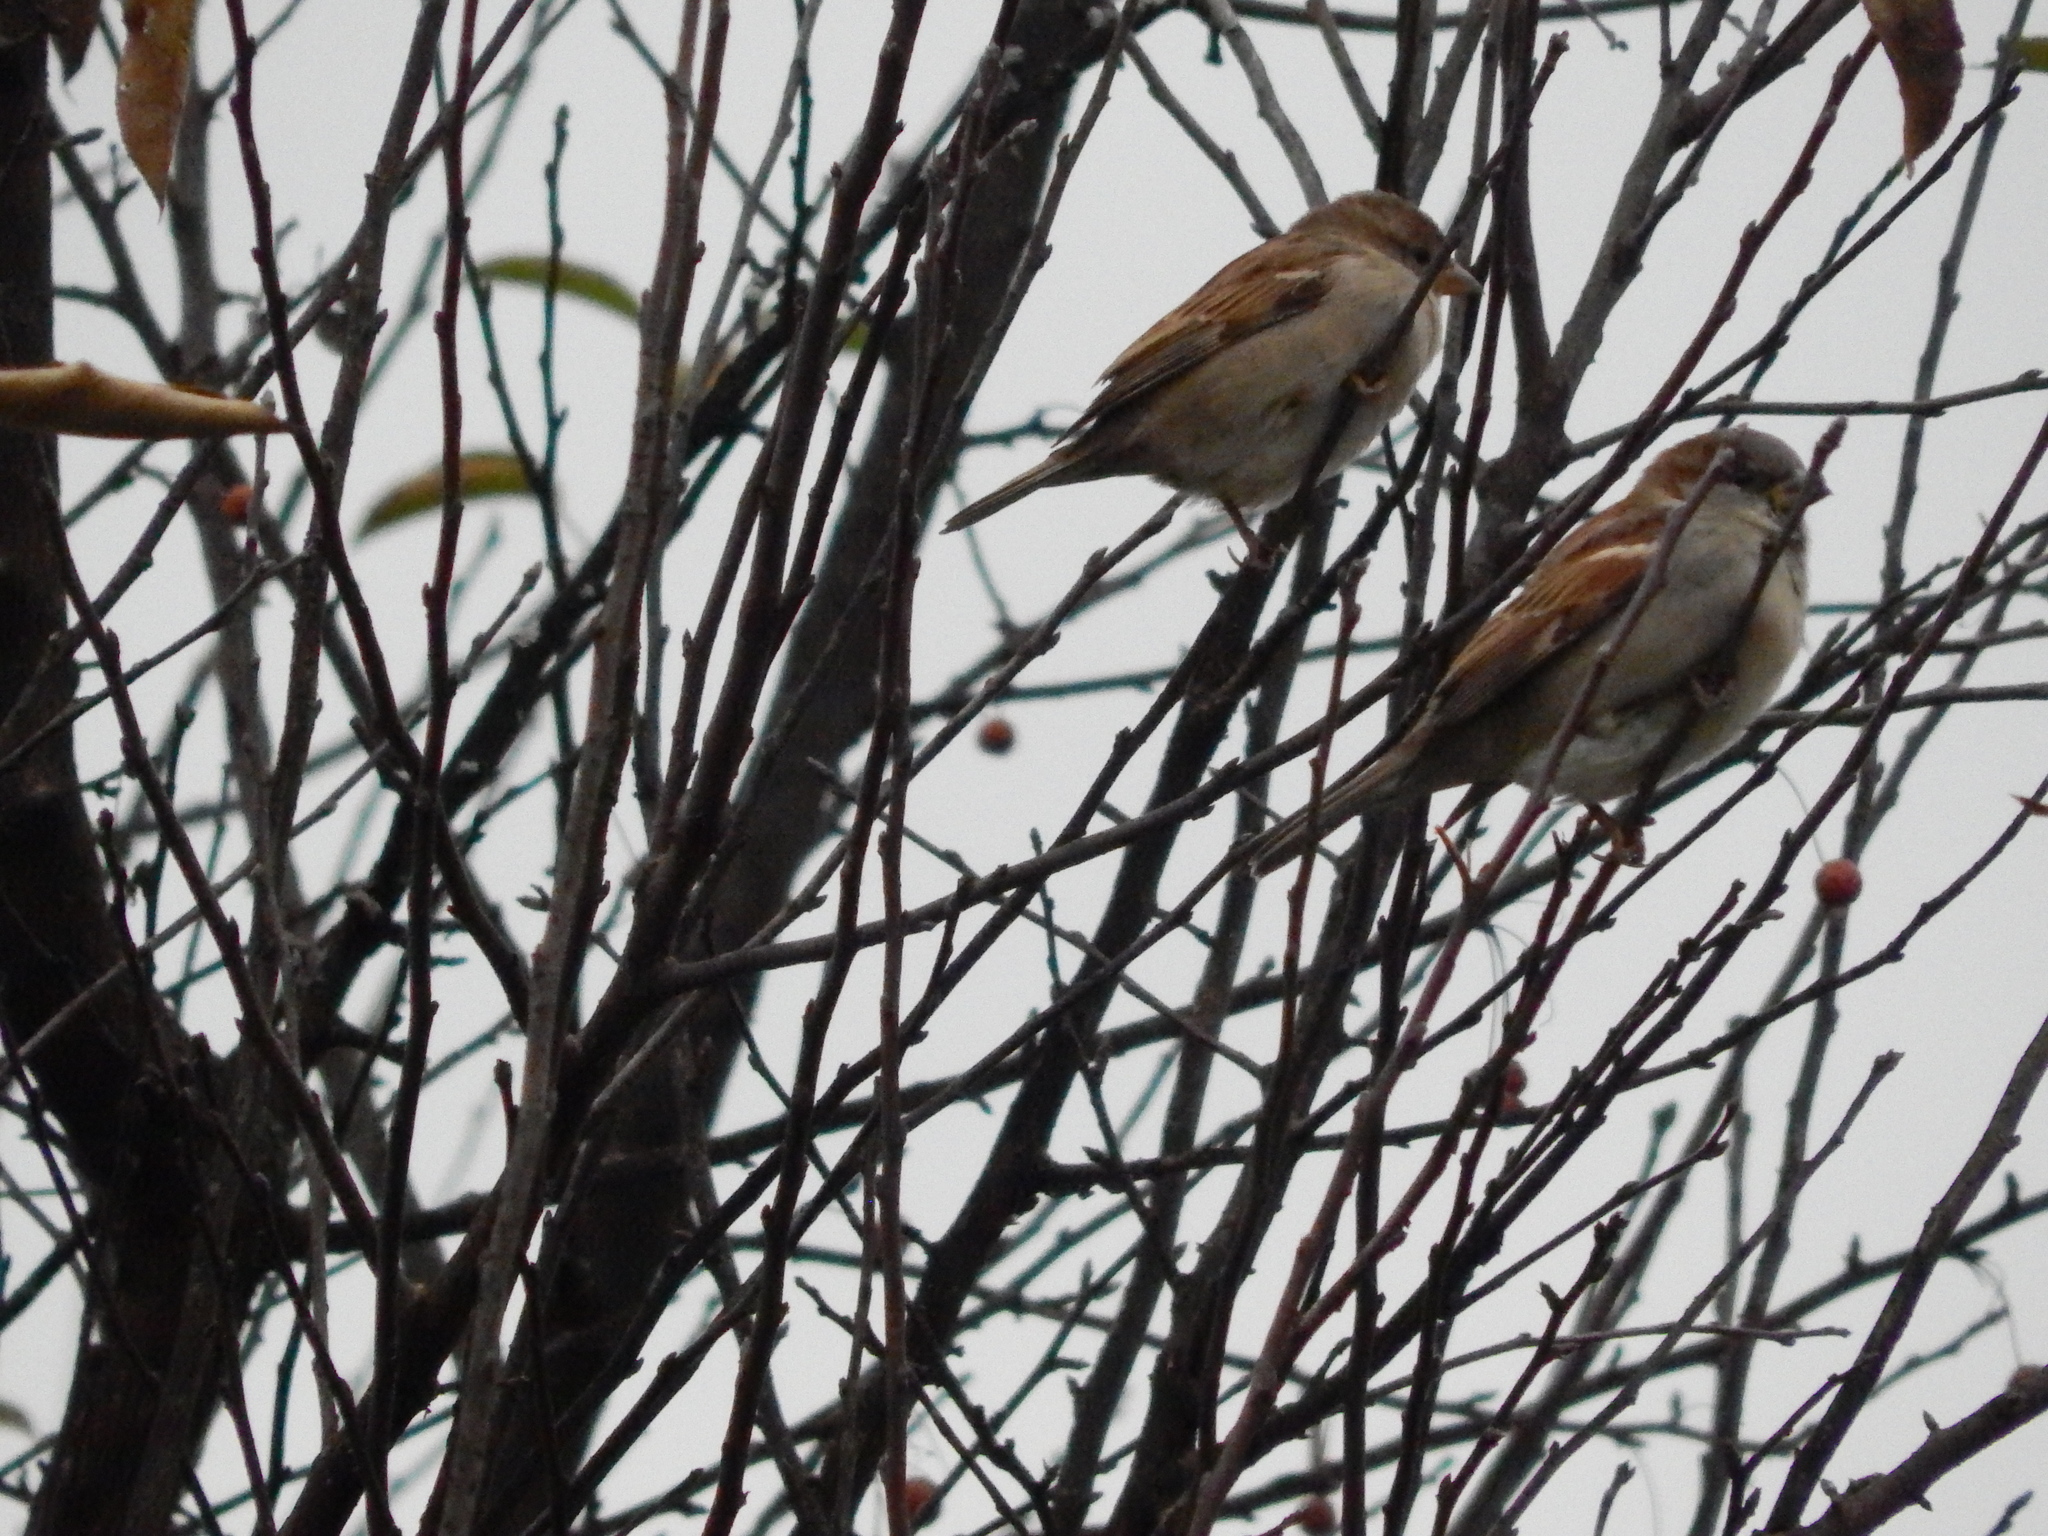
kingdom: Animalia
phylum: Chordata
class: Aves
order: Passeriformes
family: Passeridae
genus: Passer
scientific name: Passer domesticus
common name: House sparrow
